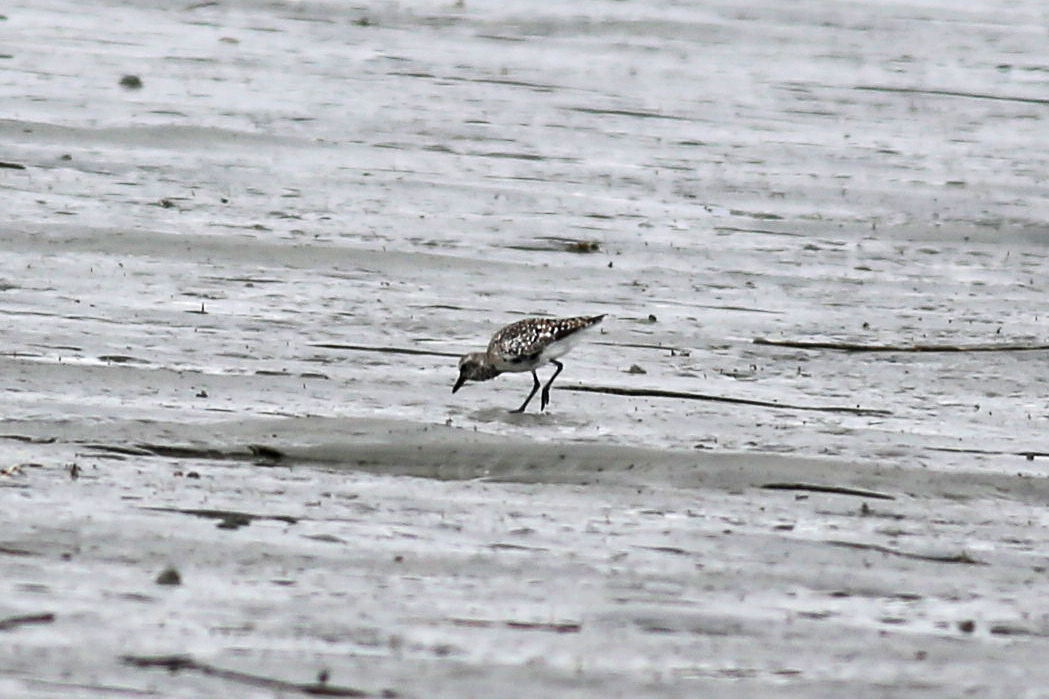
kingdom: Animalia
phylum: Chordata
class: Aves
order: Charadriiformes
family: Charadriidae
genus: Pluvialis
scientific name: Pluvialis squatarola
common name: Grey plover
